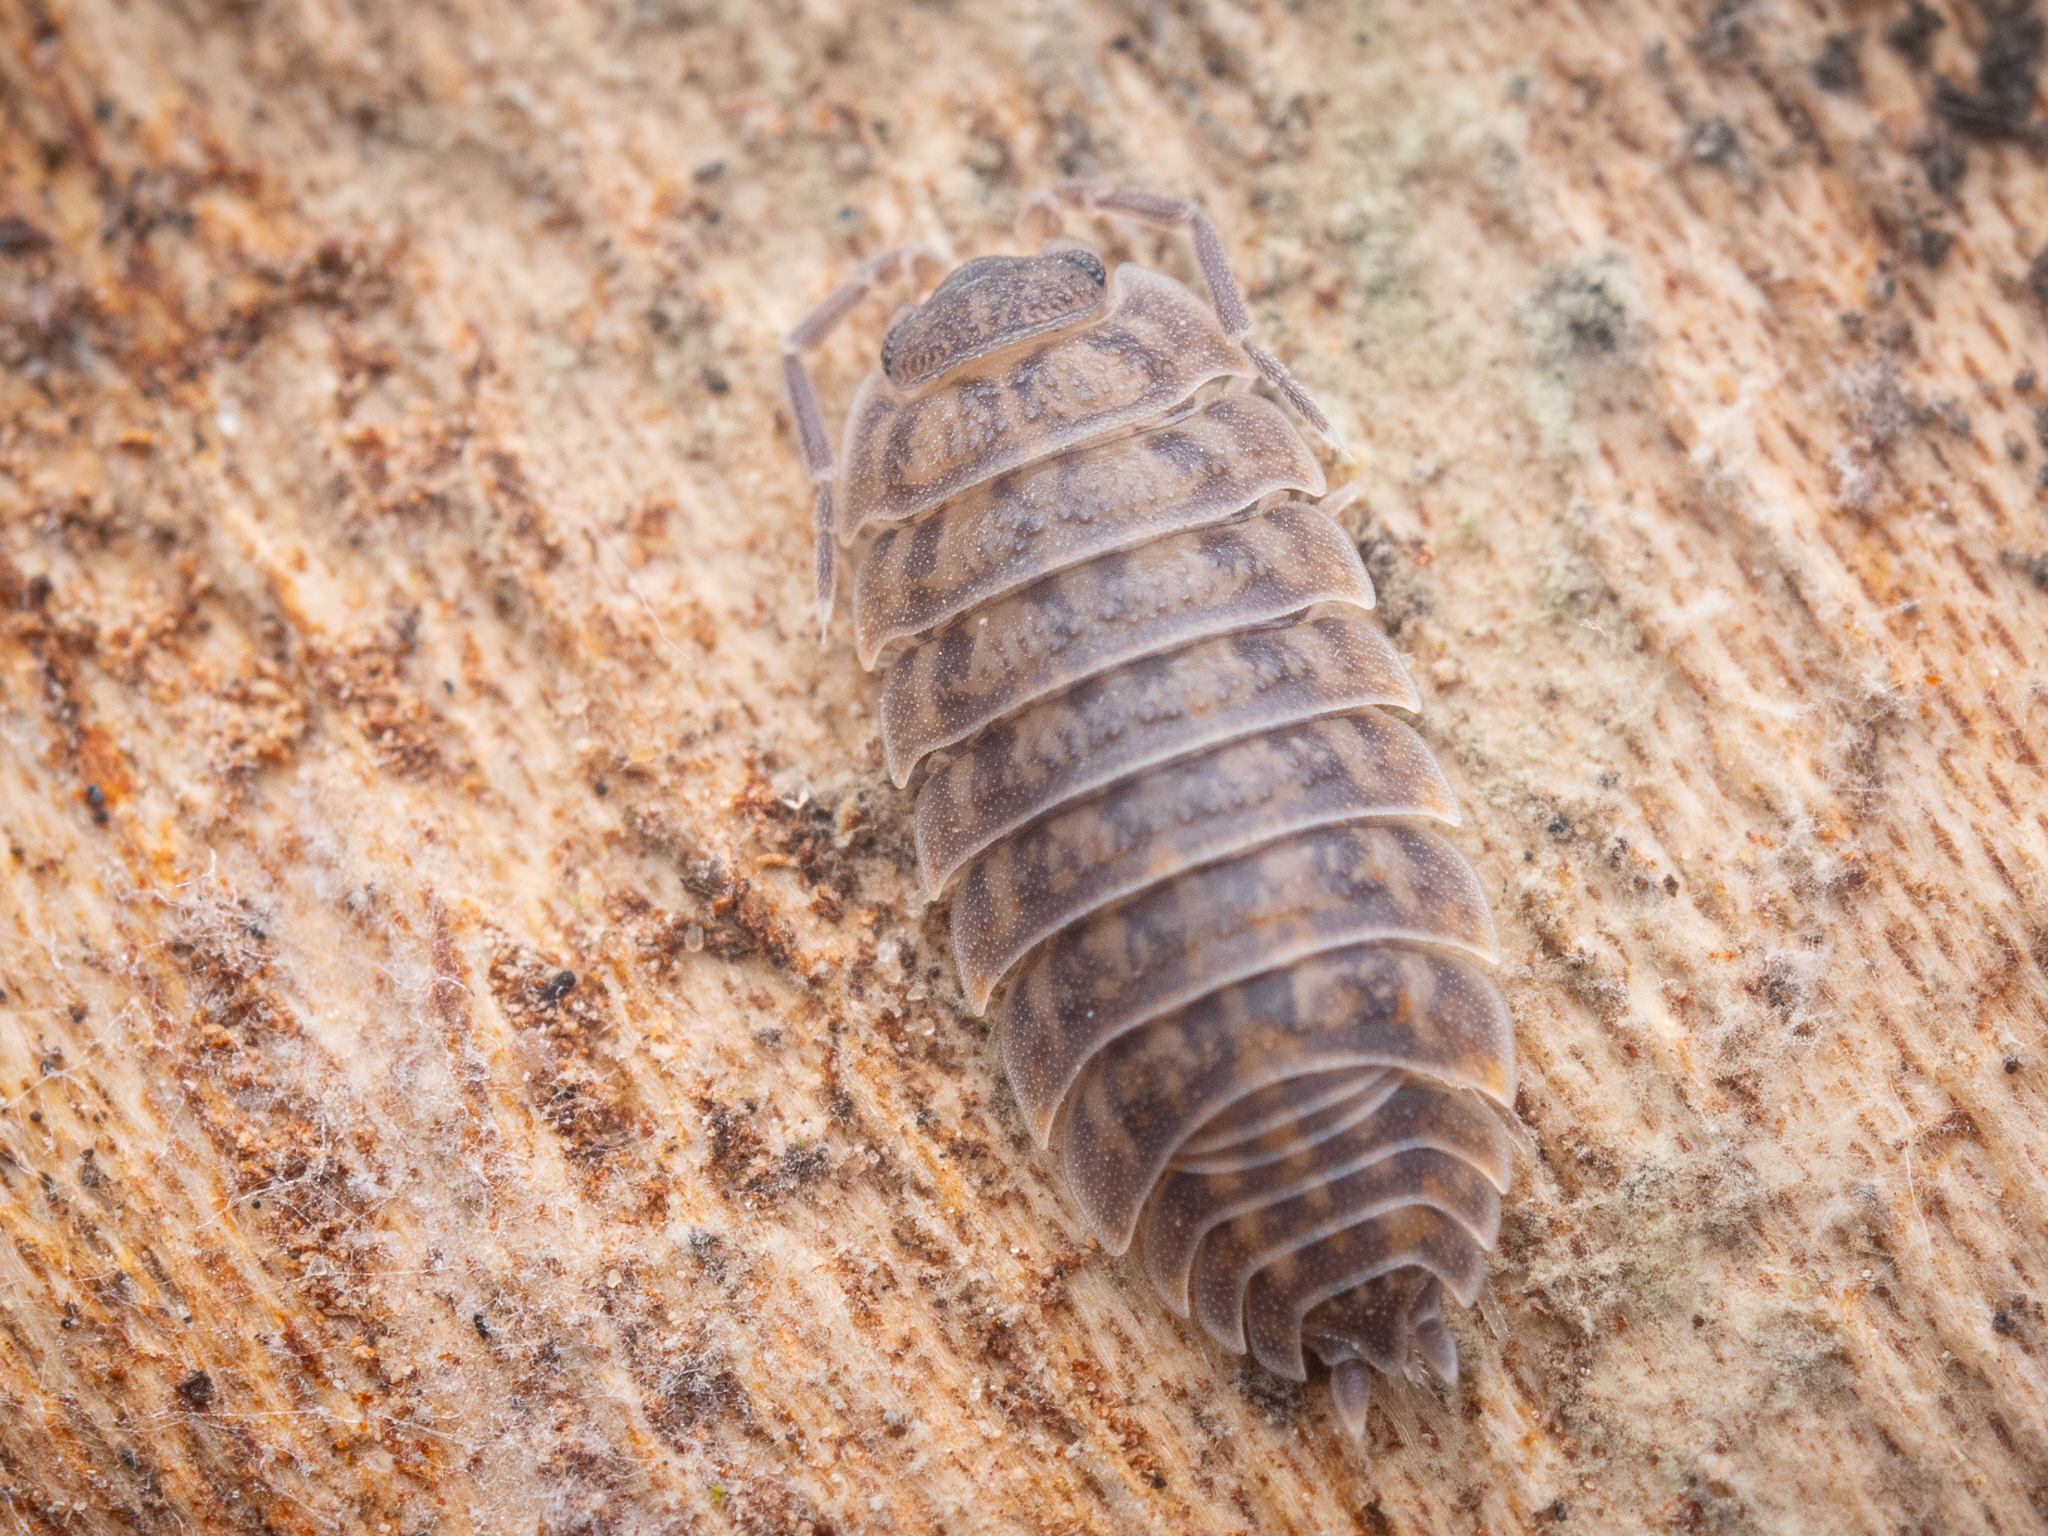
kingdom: Animalia
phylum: Arthropoda
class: Malacostraca
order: Isopoda
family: Trachelipodidae
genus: Trachelipus
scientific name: Trachelipus rathkii
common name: Isopod
